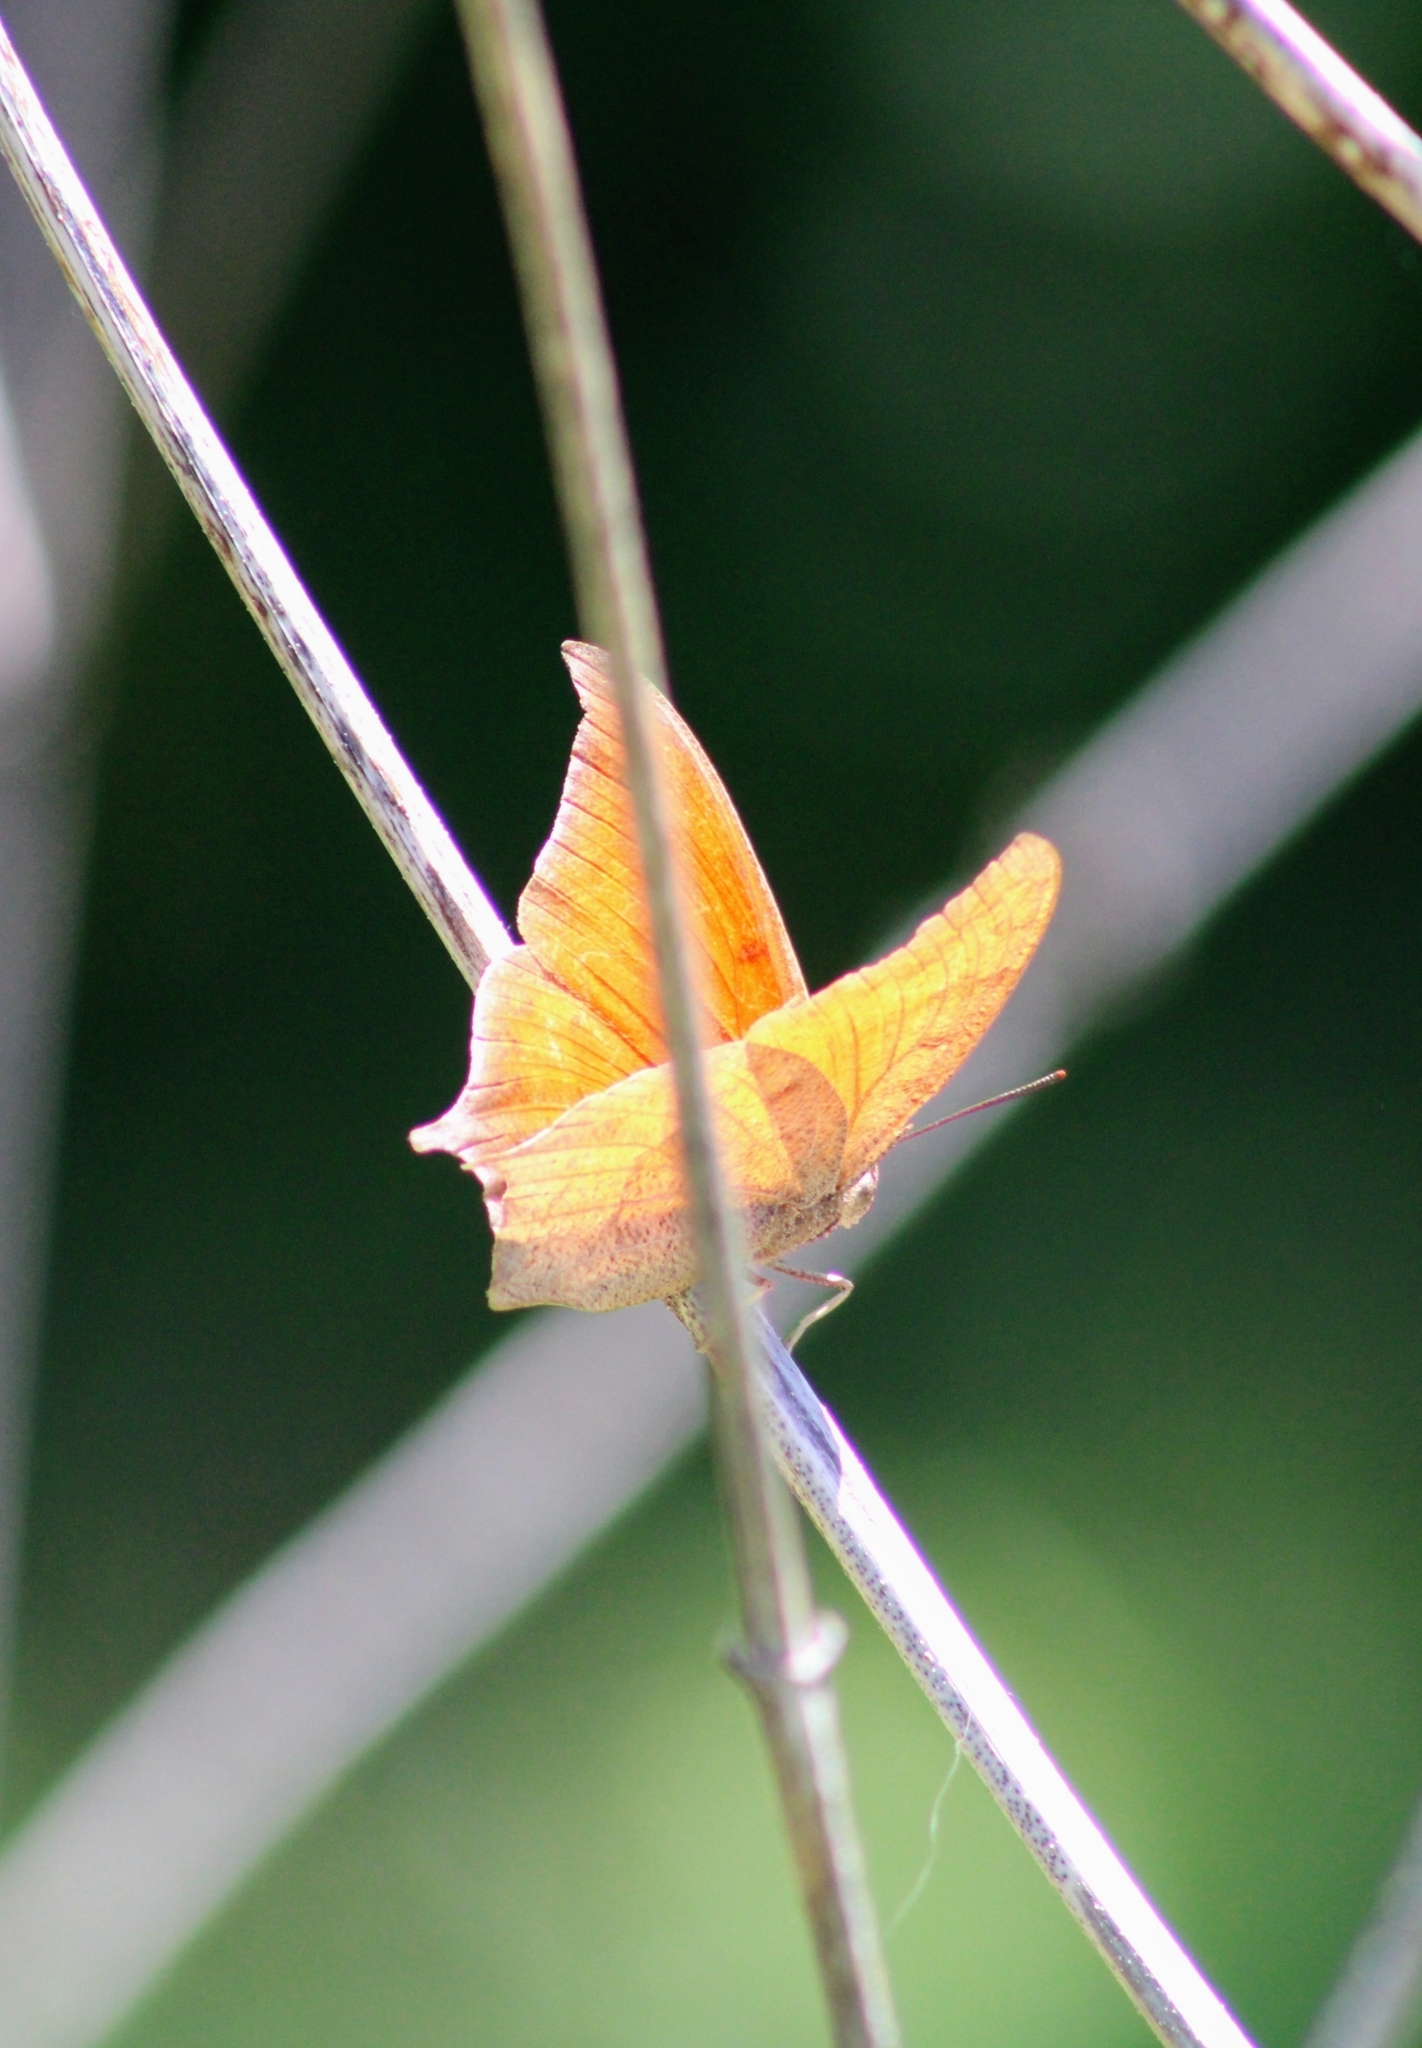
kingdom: Animalia
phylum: Arthropoda
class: Insecta
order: Lepidoptera
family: Nymphalidae
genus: Anaea
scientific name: Anaea andria
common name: Goatweed leafwing
